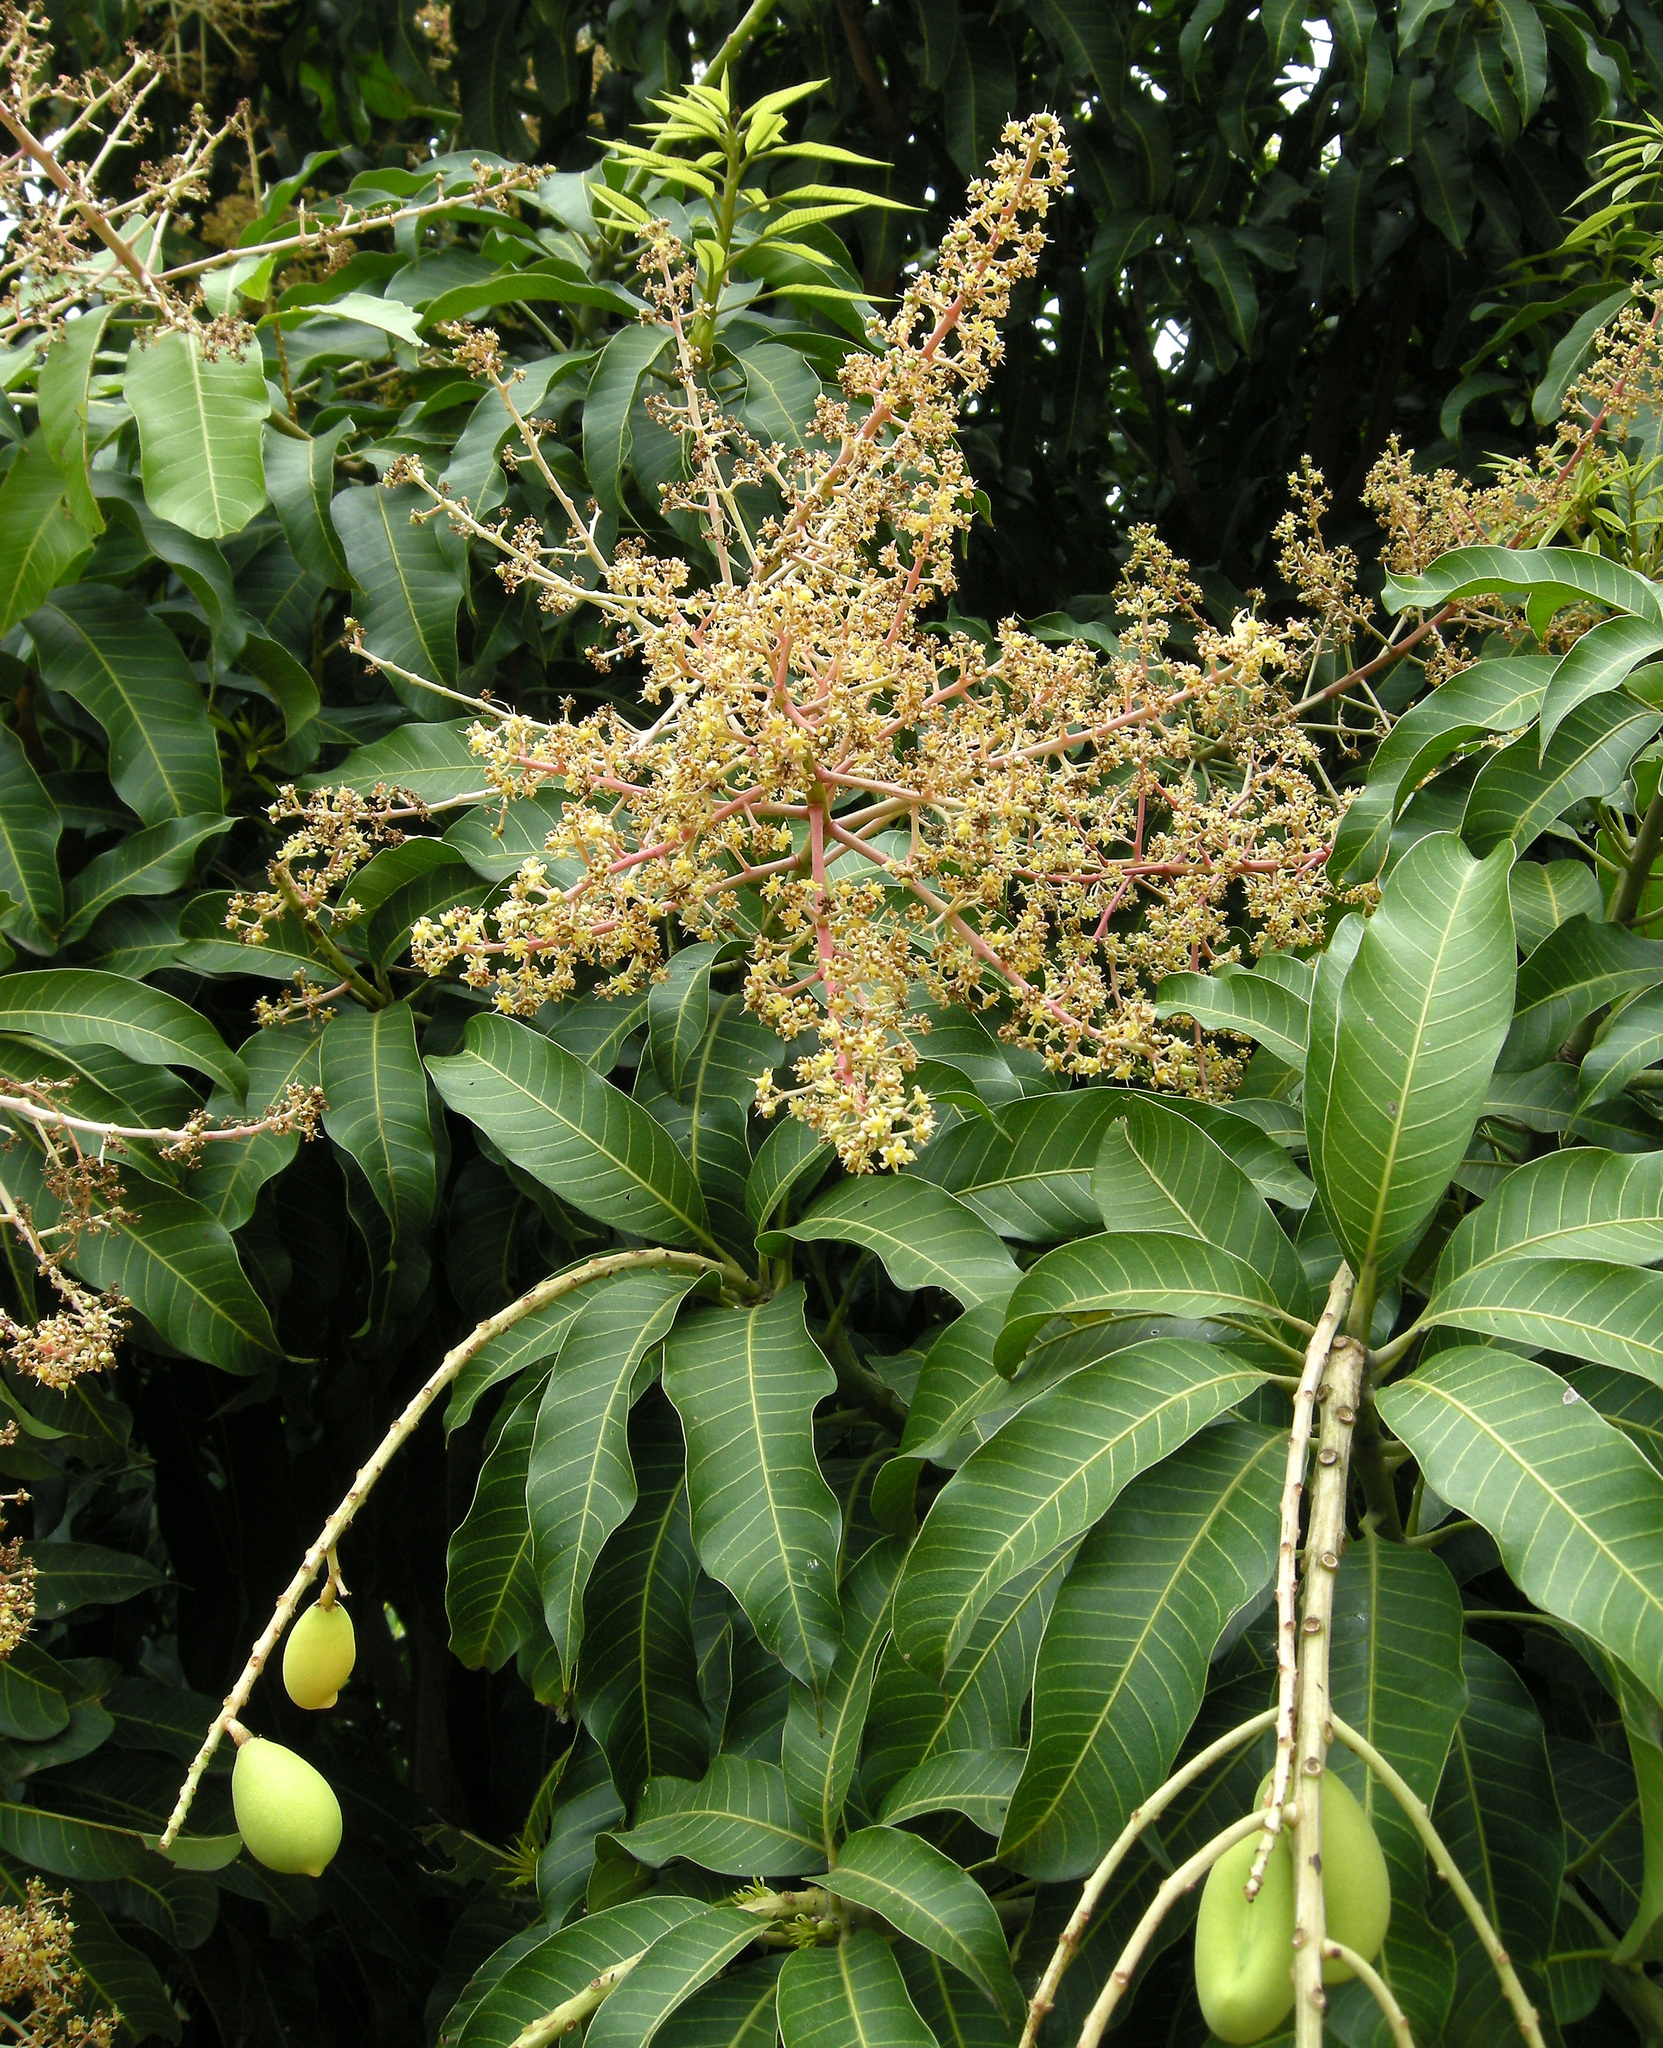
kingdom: Plantae
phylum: Tracheophyta
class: Magnoliopsida
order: Sapindales
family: Anacardiaceae
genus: Mangifera
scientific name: Mangifera indica
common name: Mango
